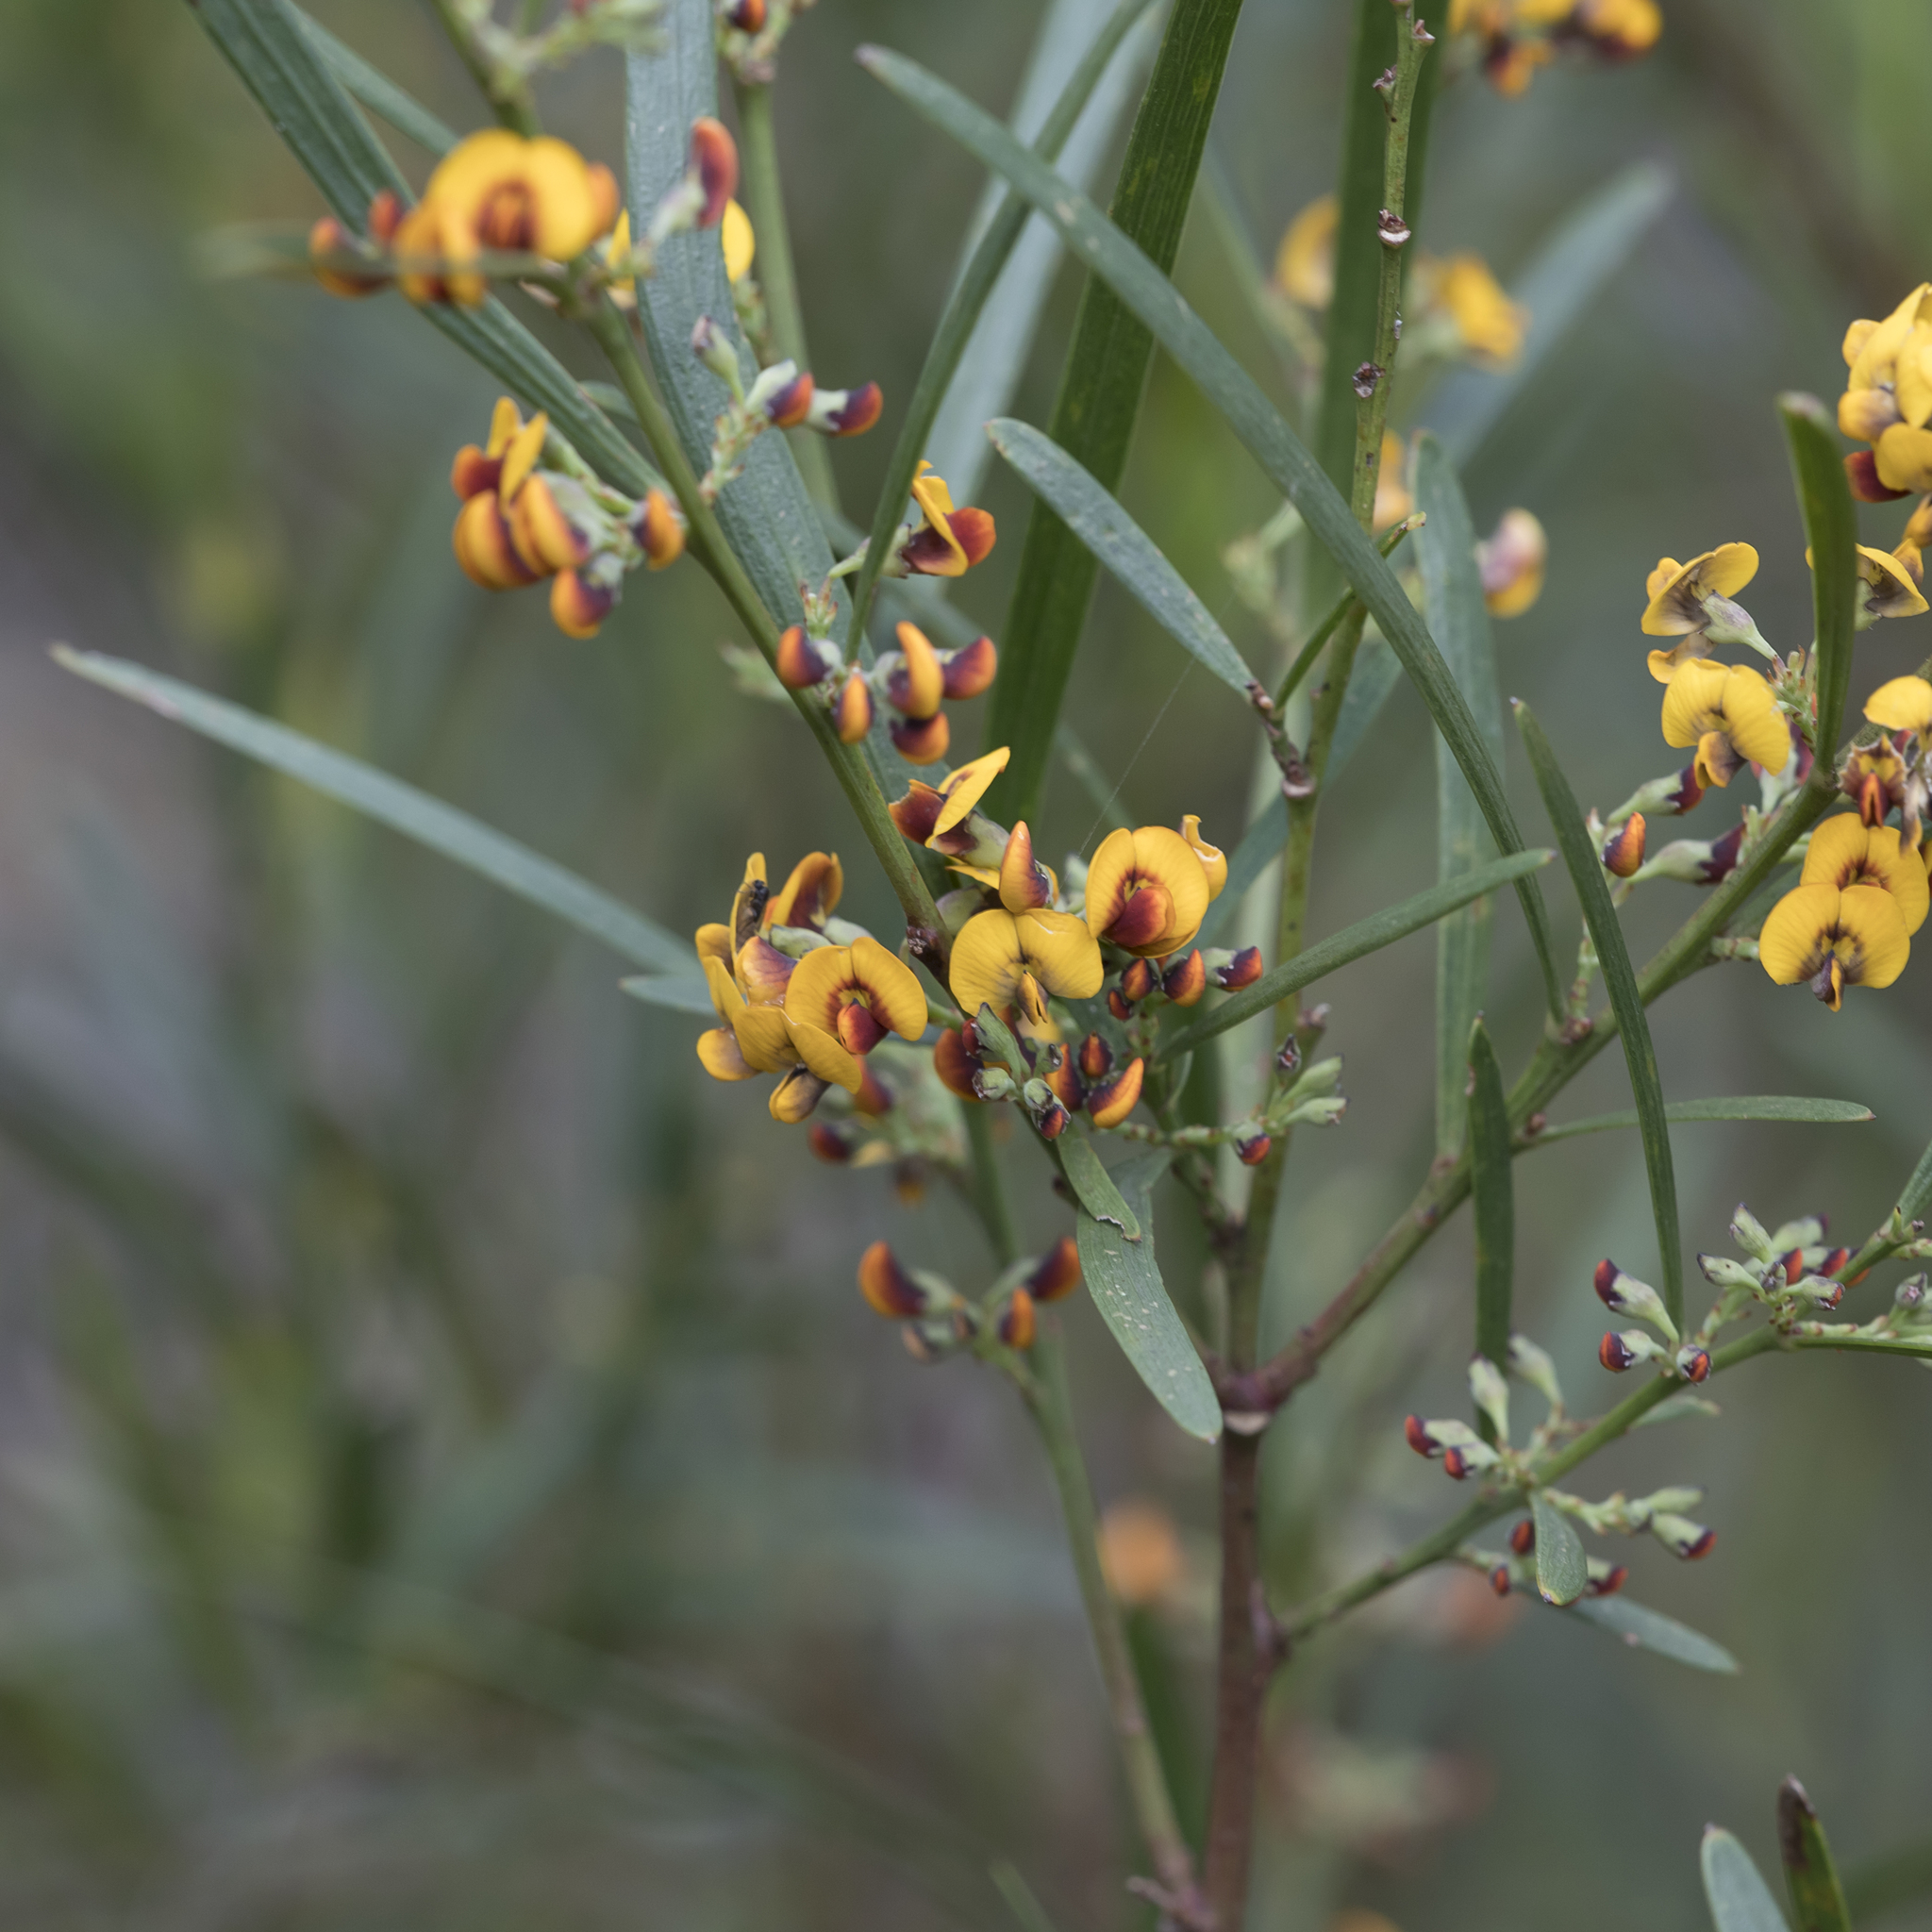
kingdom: Plantae
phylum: Tracheophyta
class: Magnoliopsida
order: Fabales
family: Fabaceae
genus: Daviesia
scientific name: Daviesia leptophylla
